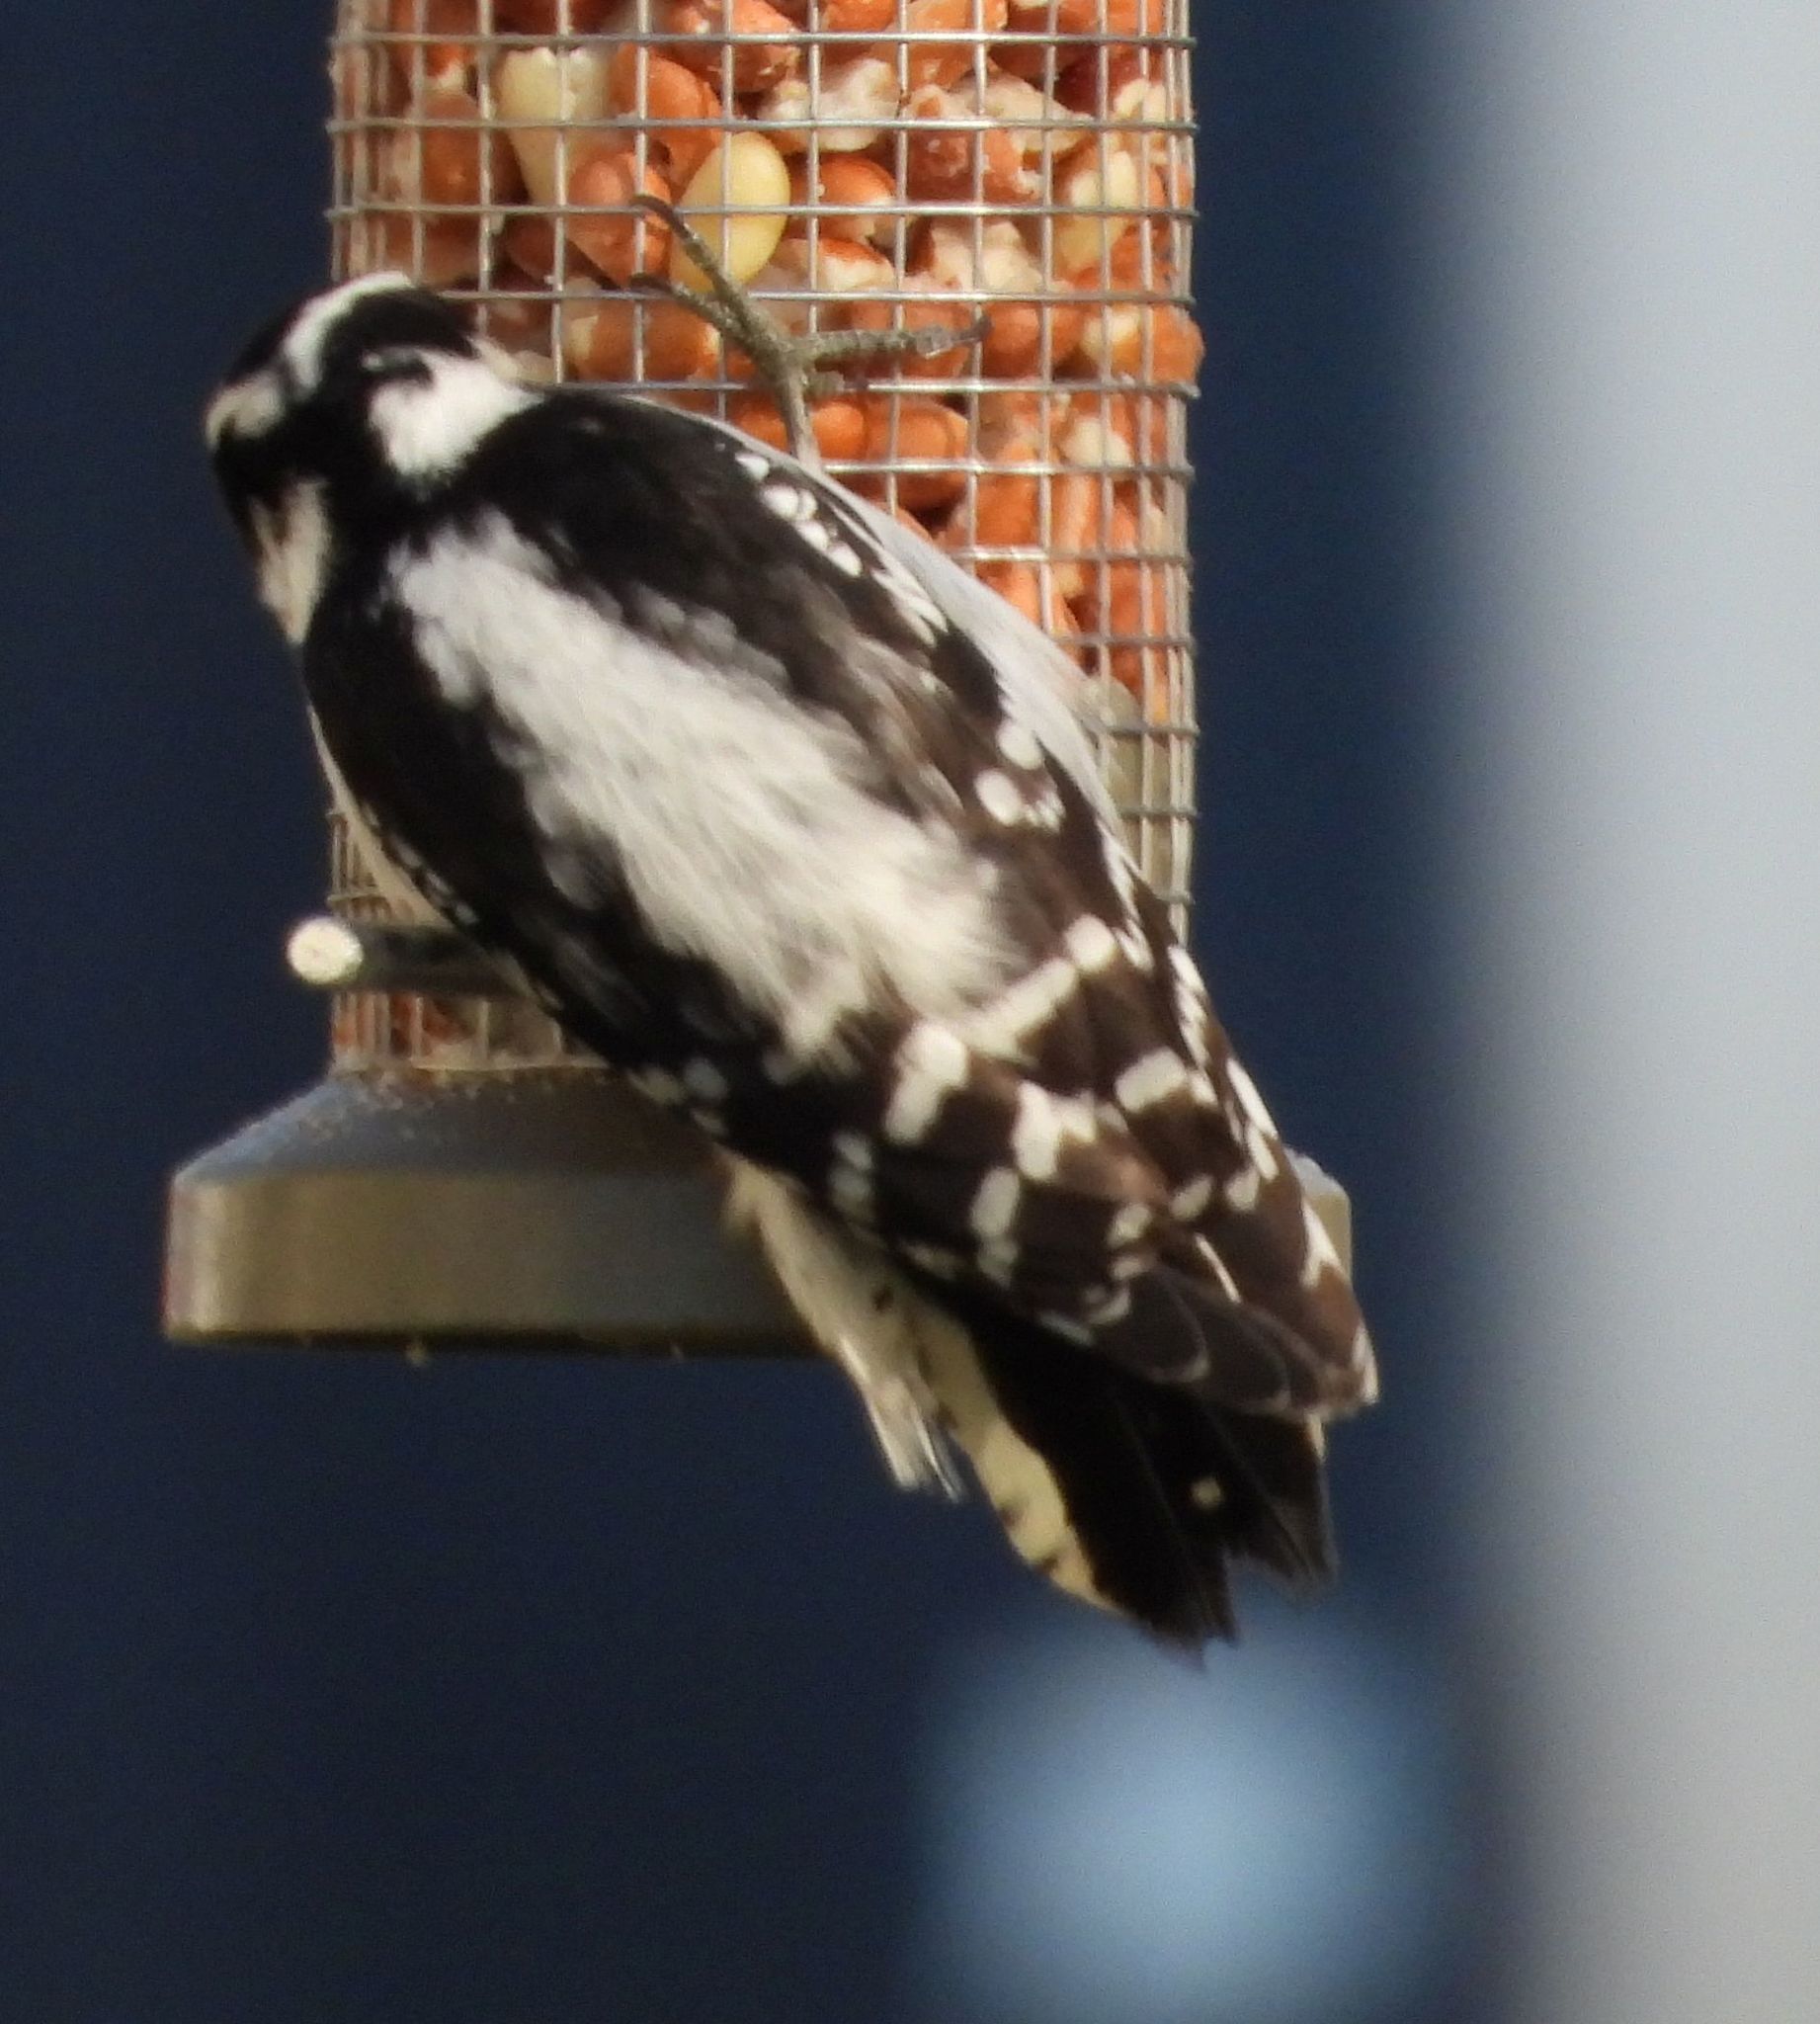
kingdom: Animalia
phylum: Chordata
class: Aves
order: Piciformes
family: Picidae
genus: Dryobates
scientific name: Dryobates pubescens
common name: Downy woodpecker
